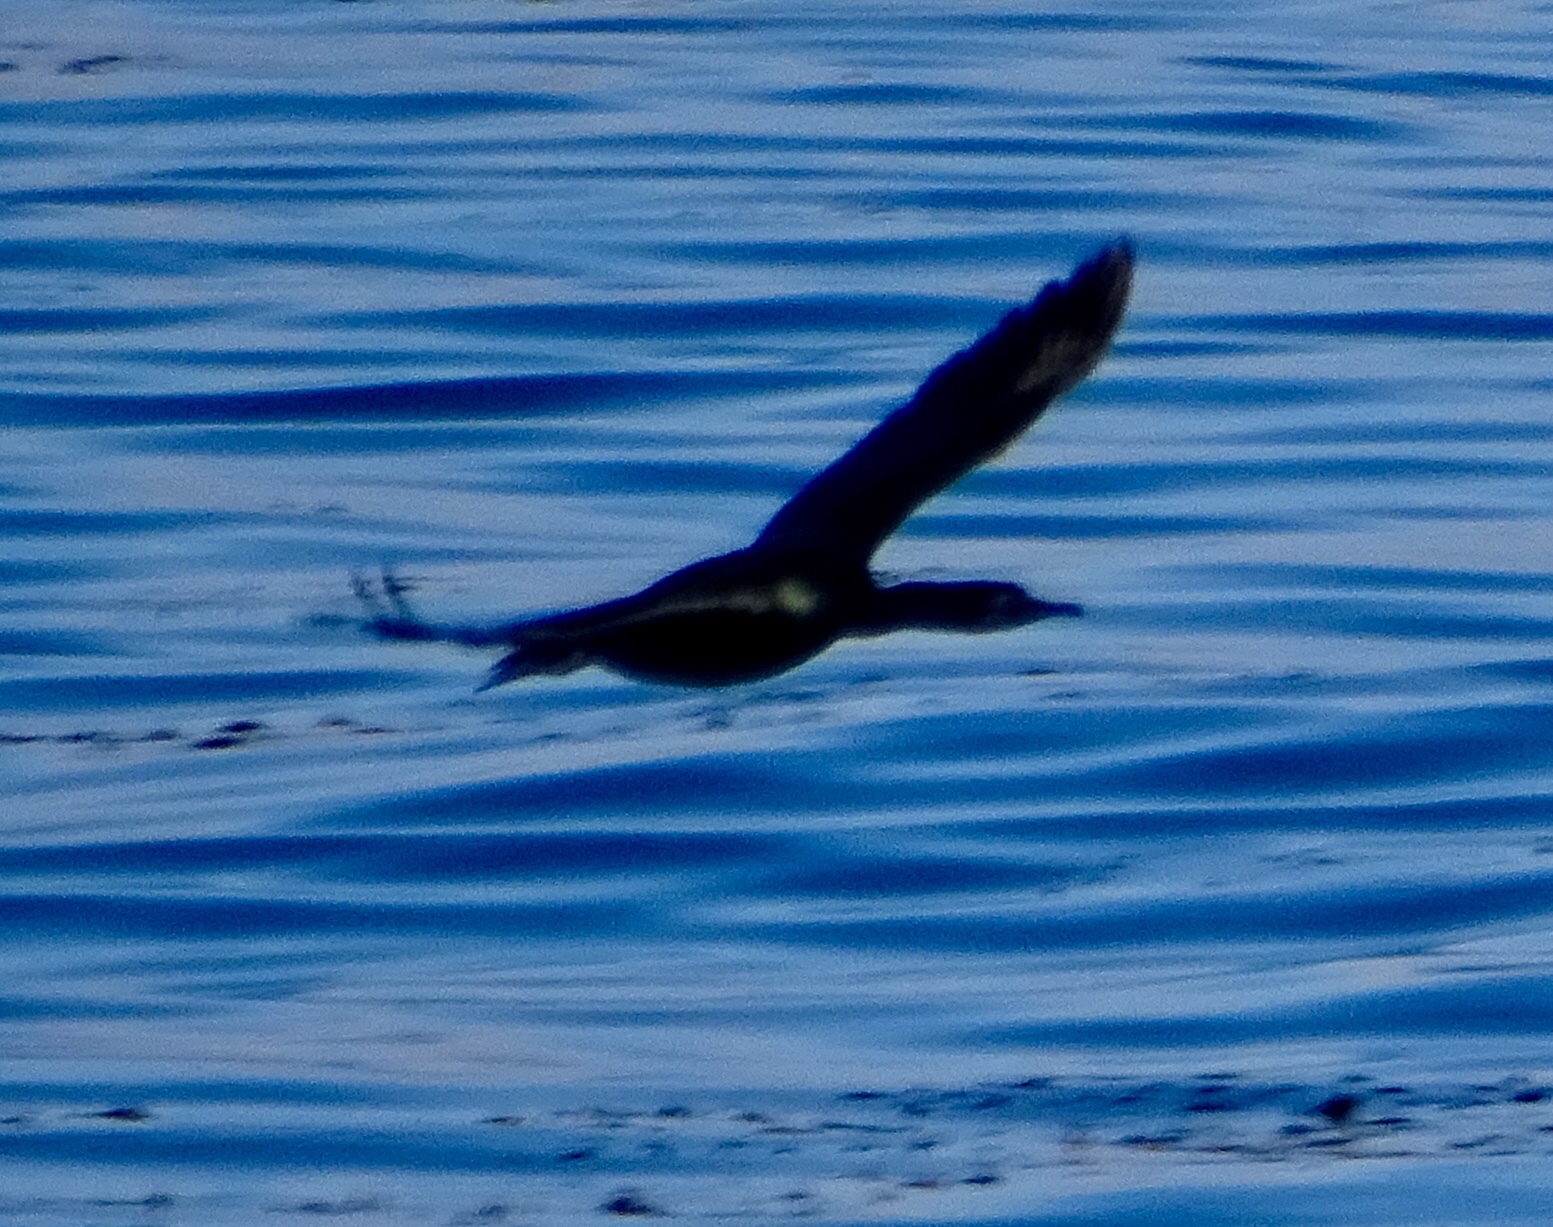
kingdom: Animalia
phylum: Chordata
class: Aves
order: Suliformes
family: Phalacrocoracidae
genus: Urile
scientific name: Urile penicillatus
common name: Brandt's cormorant
